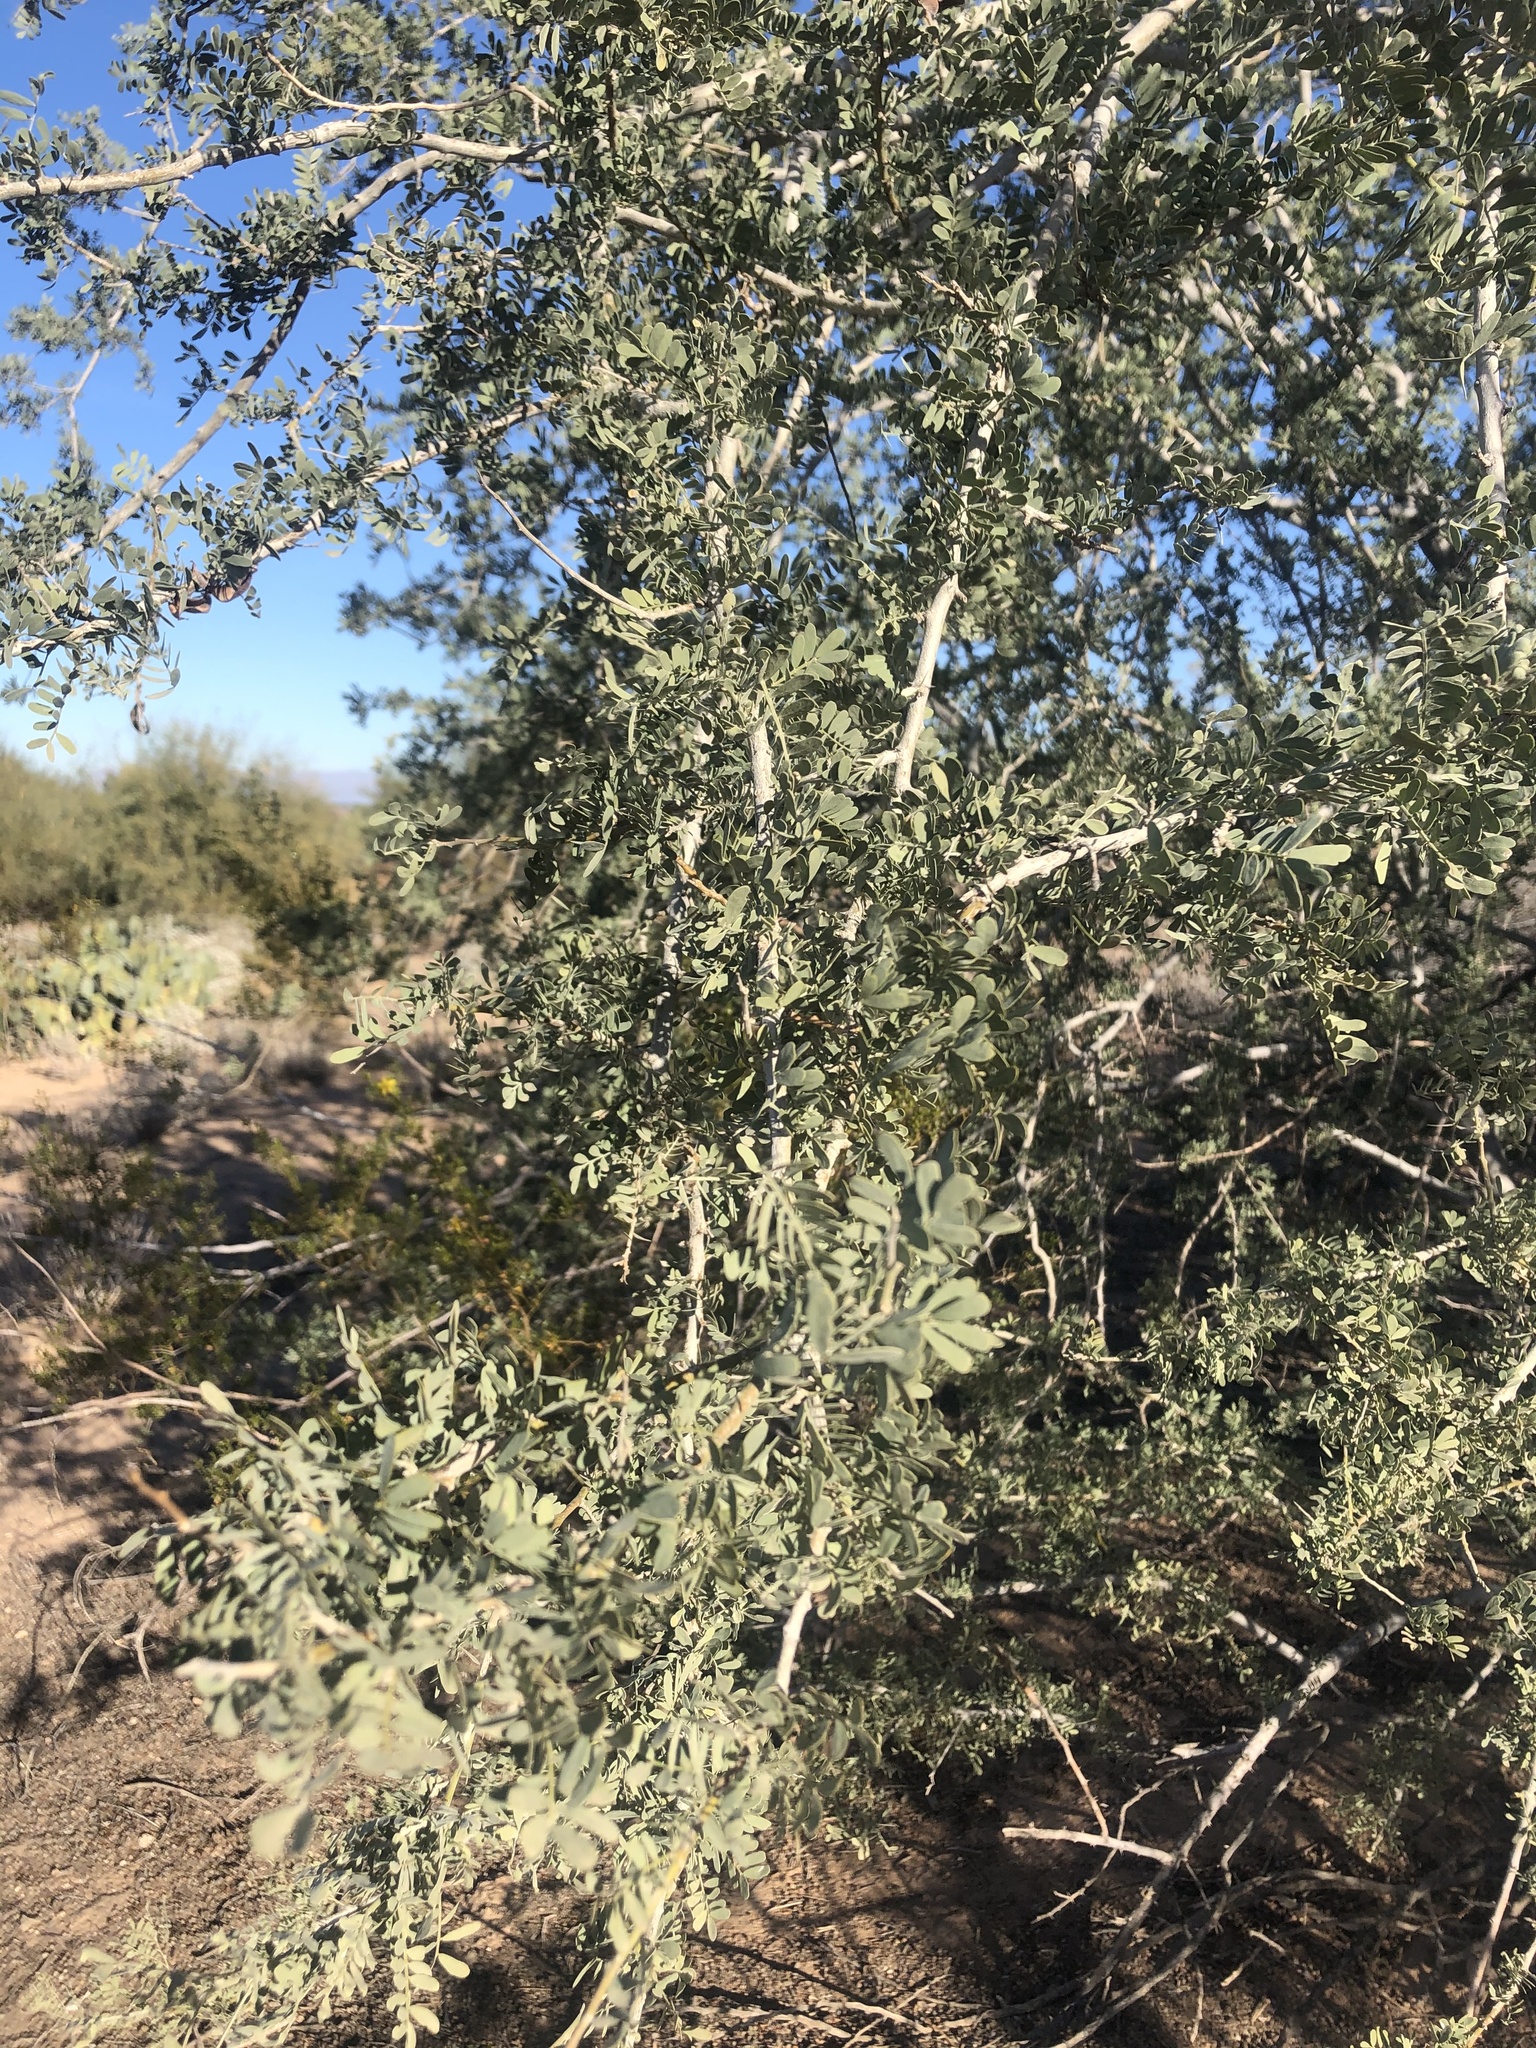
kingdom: Plantae
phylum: Tracheophyta
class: Magnoliopsida
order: Fabales
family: Fabaceae
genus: Olneya
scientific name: Olneya tesota
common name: Desert ironwood
